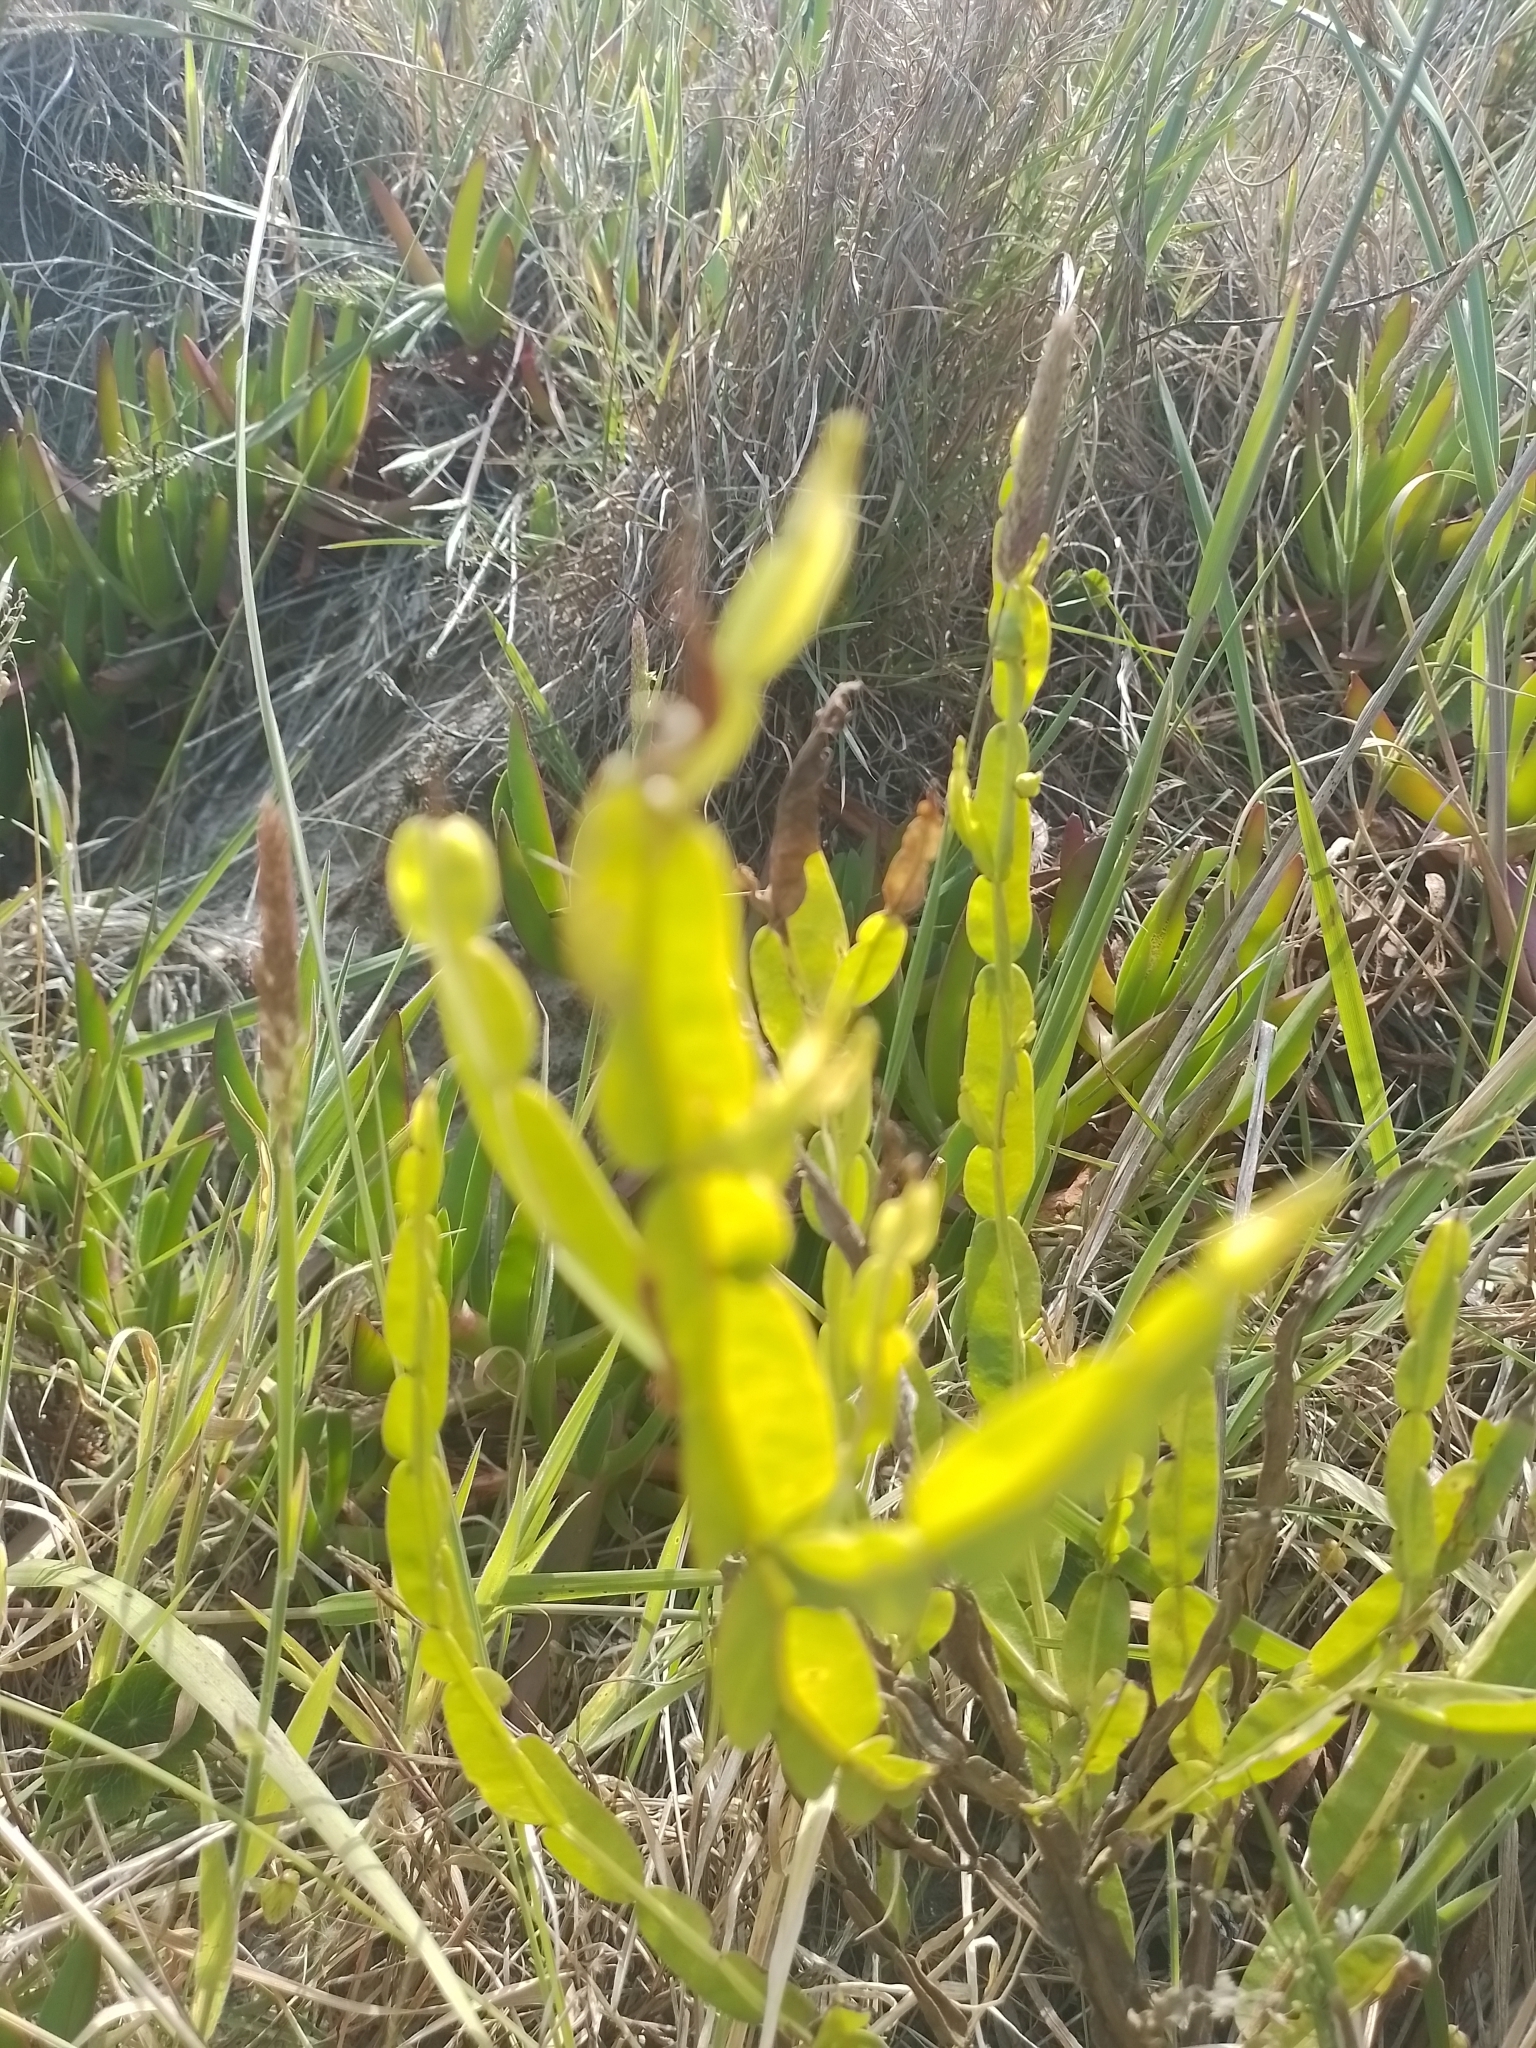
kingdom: Plantae
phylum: Tracheophyta
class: Magnoliopsida
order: Asterales
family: Asteraceae
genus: Baccharis
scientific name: Baccharis trimera
